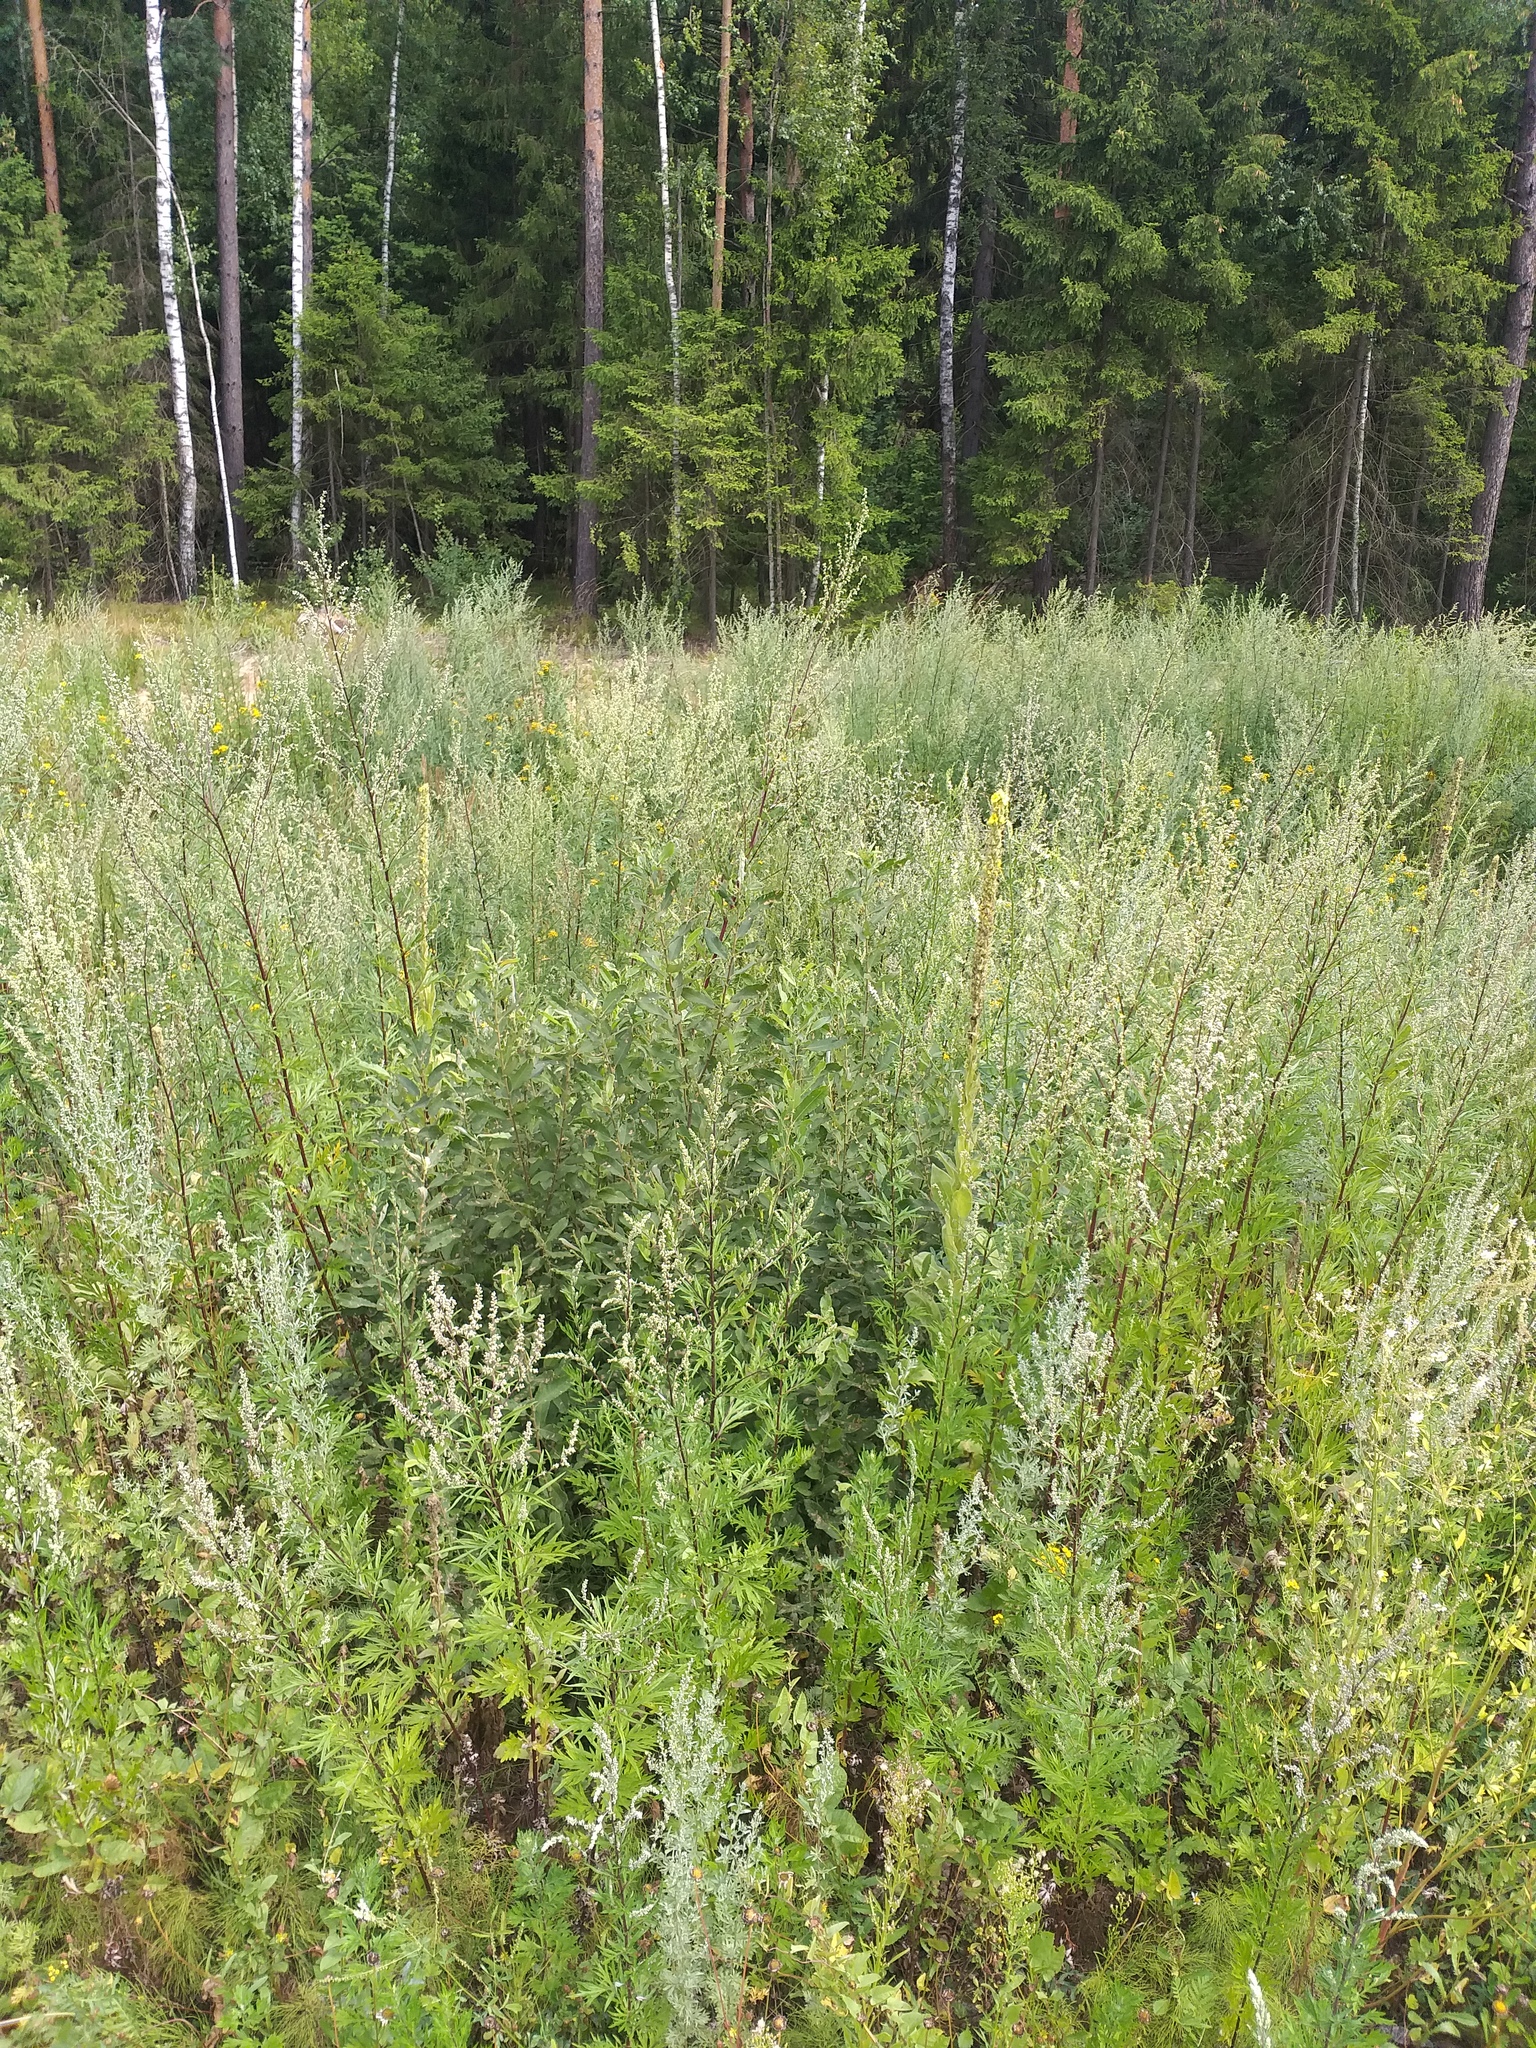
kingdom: Plantae
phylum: Tracheophyta
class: Magnoliopsida
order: Malpighiales
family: Salicaceae
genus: Salix
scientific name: Salix cinerea
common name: Common sallow
